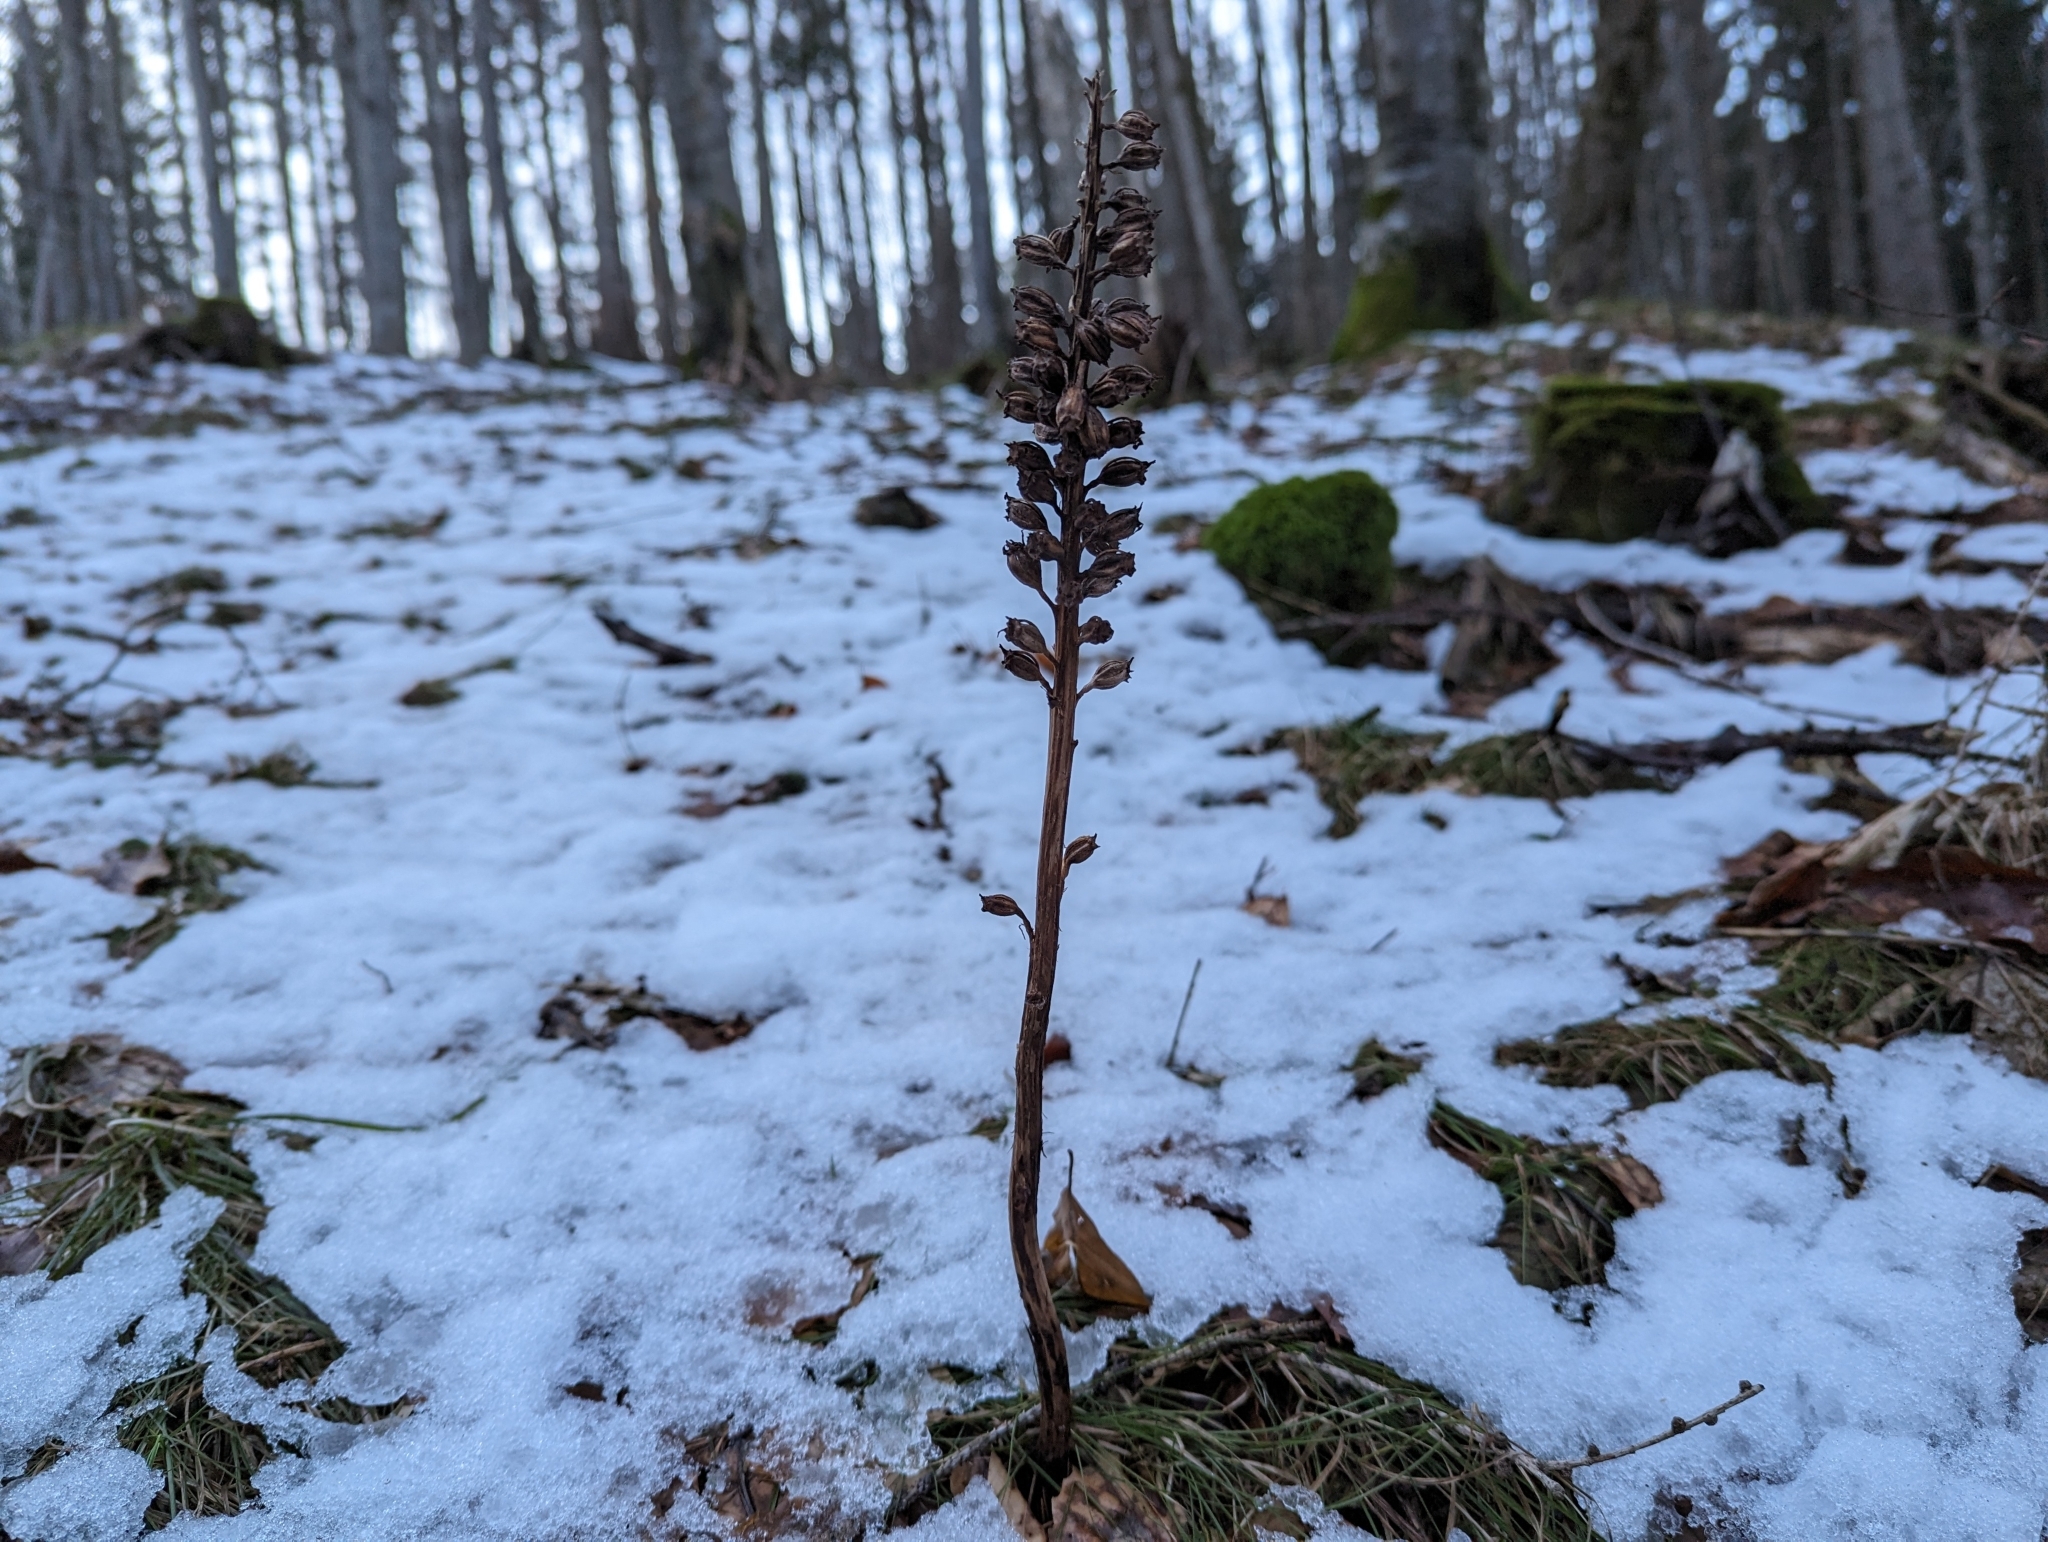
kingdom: Plantae
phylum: Tracheophyta
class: Liliopsida
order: Asparagales
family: Orchidaceae
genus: Neottia
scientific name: Neottia nidus-avis
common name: Bird's-nest orchid
